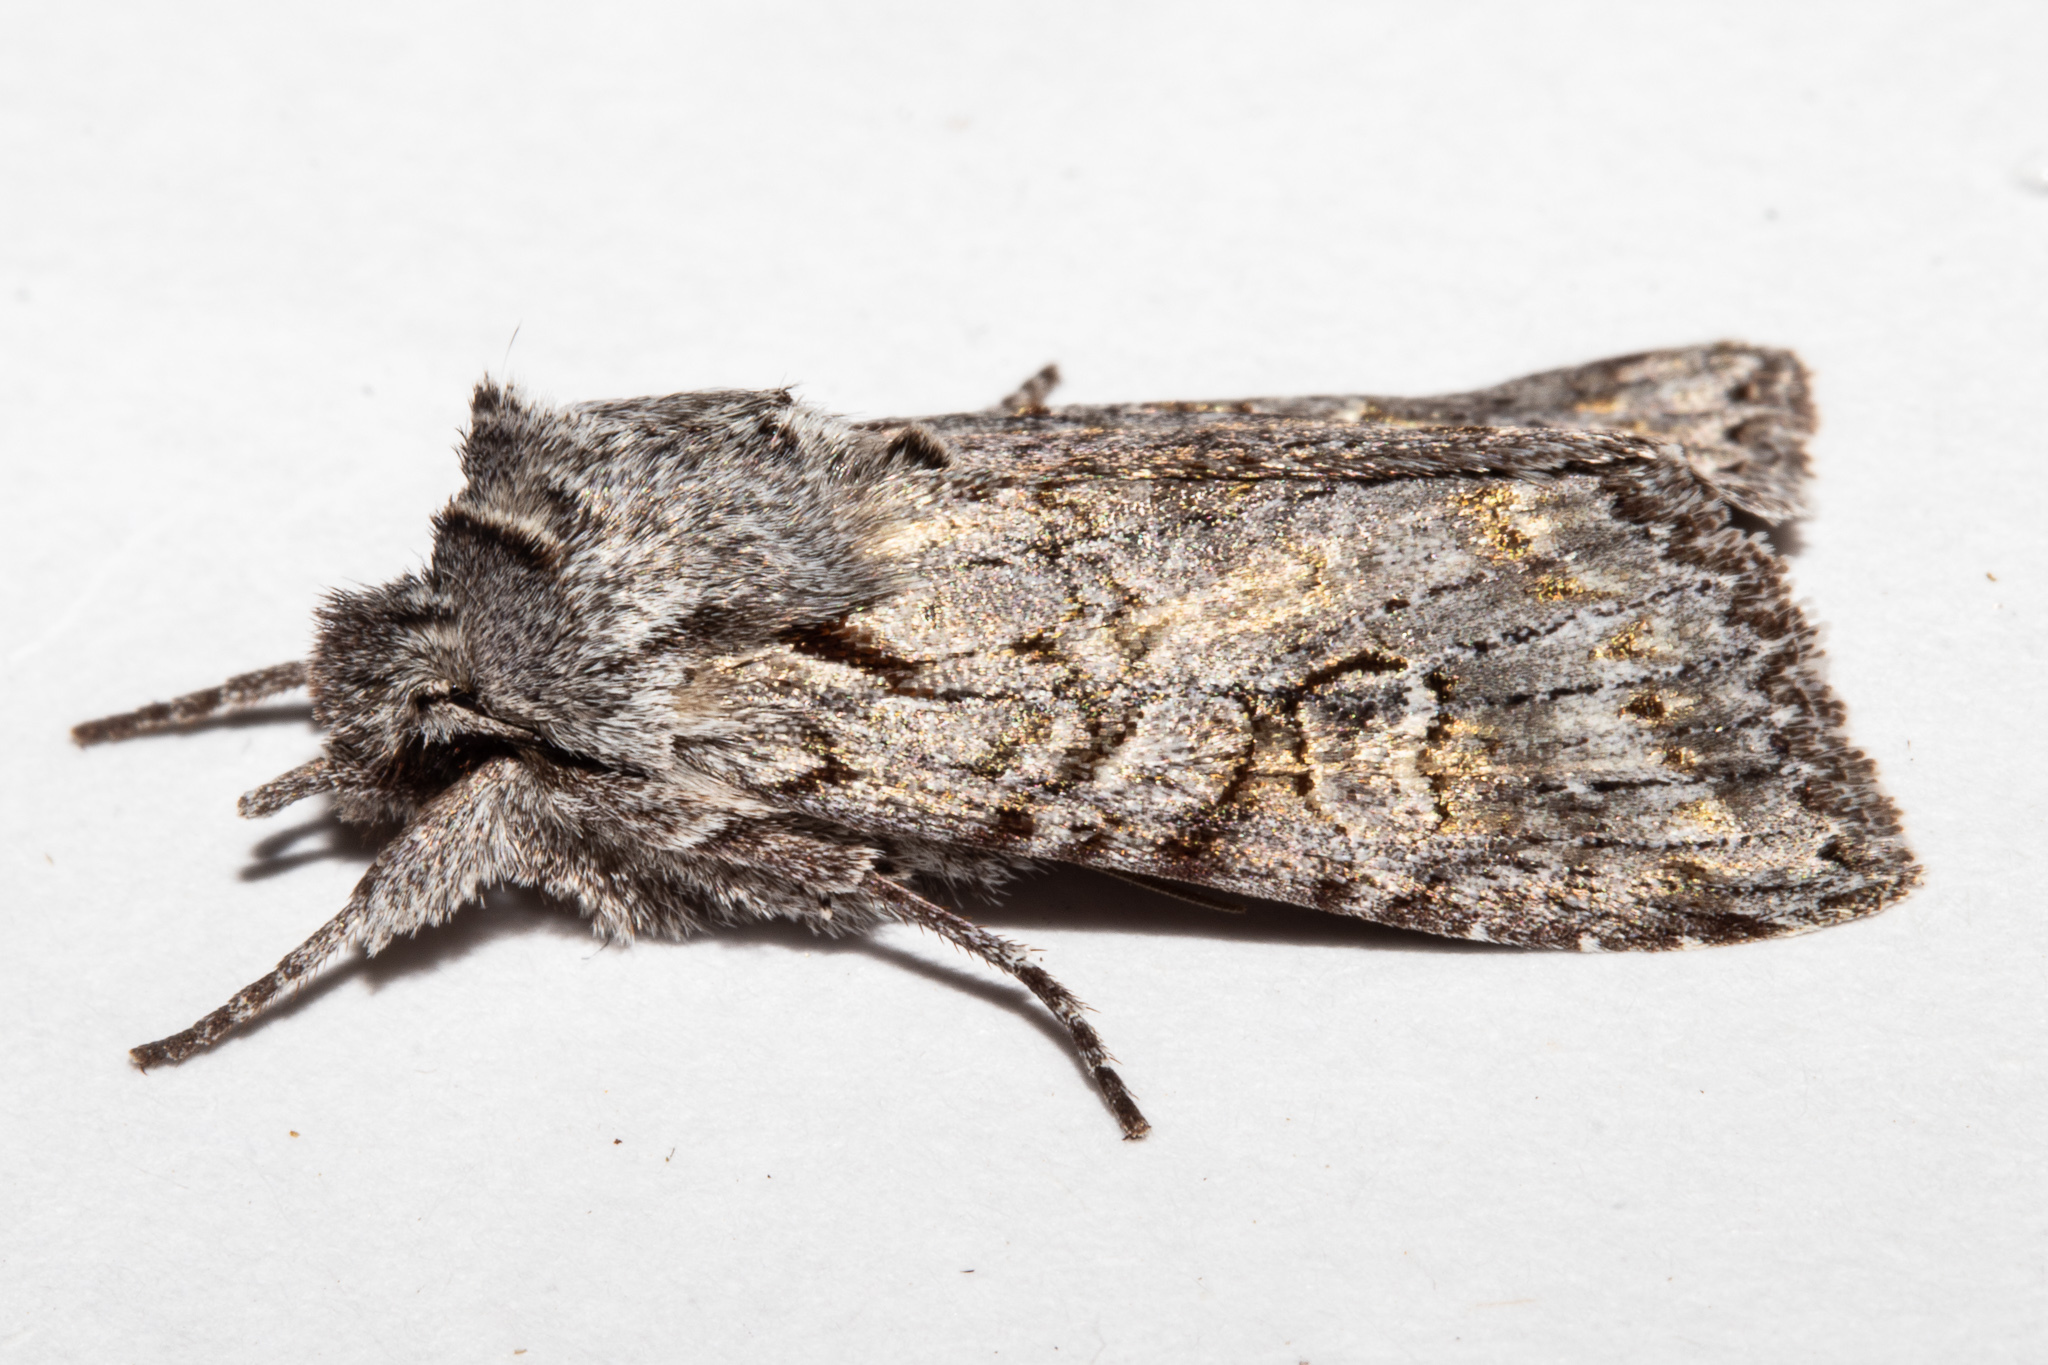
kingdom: Animalia
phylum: Arthropoda
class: Insecta
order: Lepidoptera
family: Noctuidae
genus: Physetica
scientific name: Physetica longstaffii
